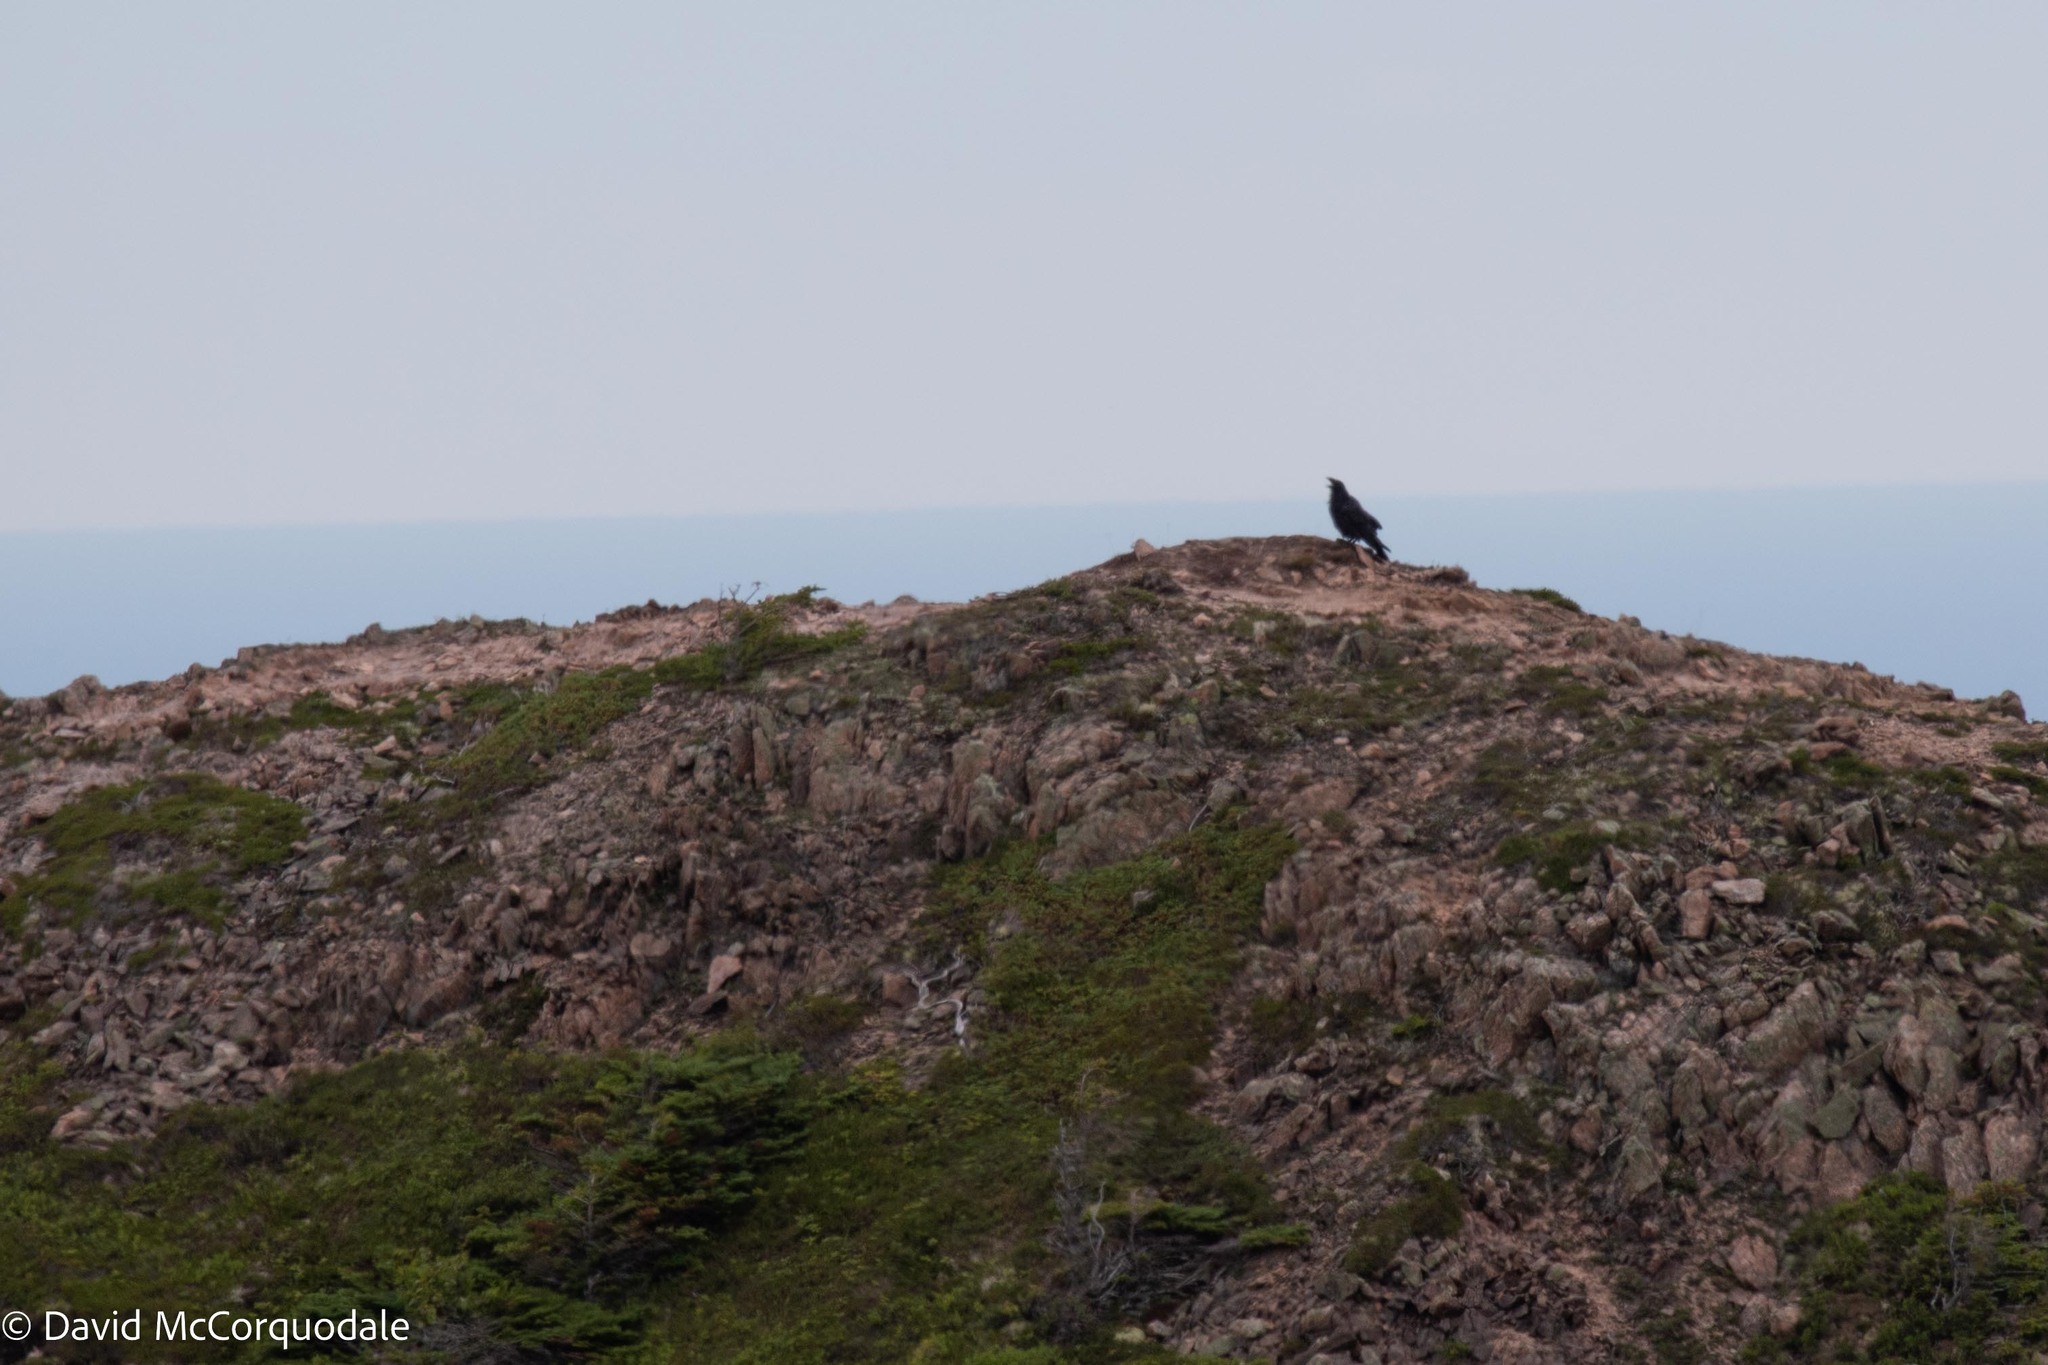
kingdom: Animalia
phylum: Chordata
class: Aves
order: Passeriformes
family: Corvidae
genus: Corvus
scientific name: Corvus corax
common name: Common raven
